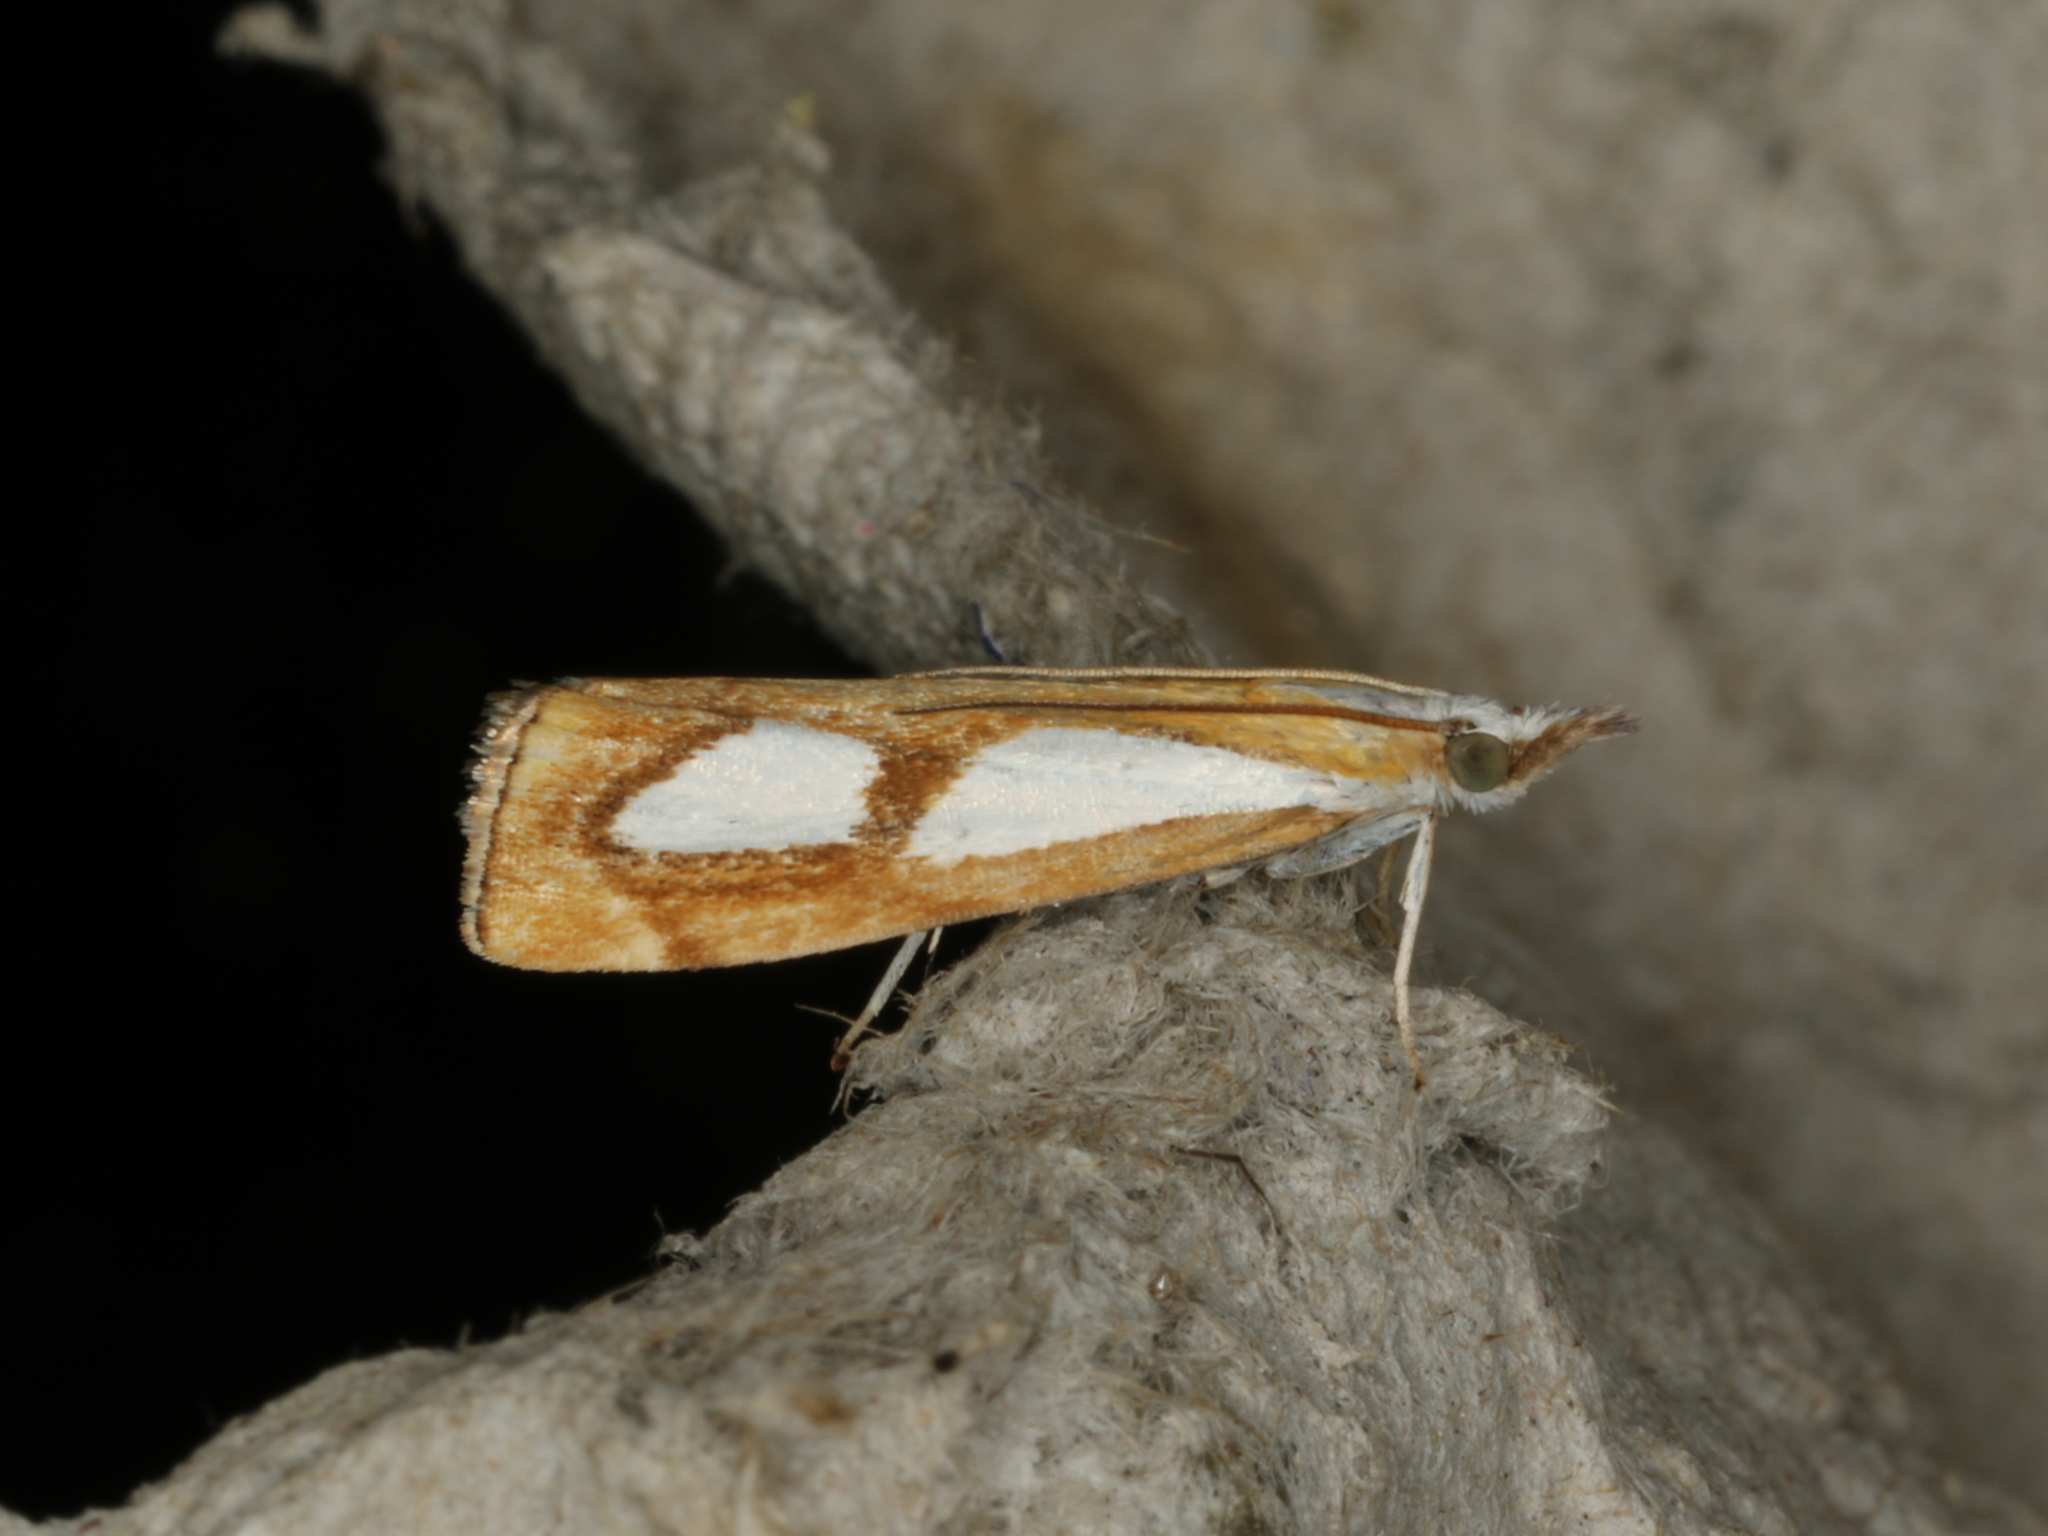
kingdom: Animalia
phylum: Arthropoda
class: Insecta
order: Lepidoptera
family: Crambidae
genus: Catoptria
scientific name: Catoptria pinella
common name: Pearl grass-veneer
